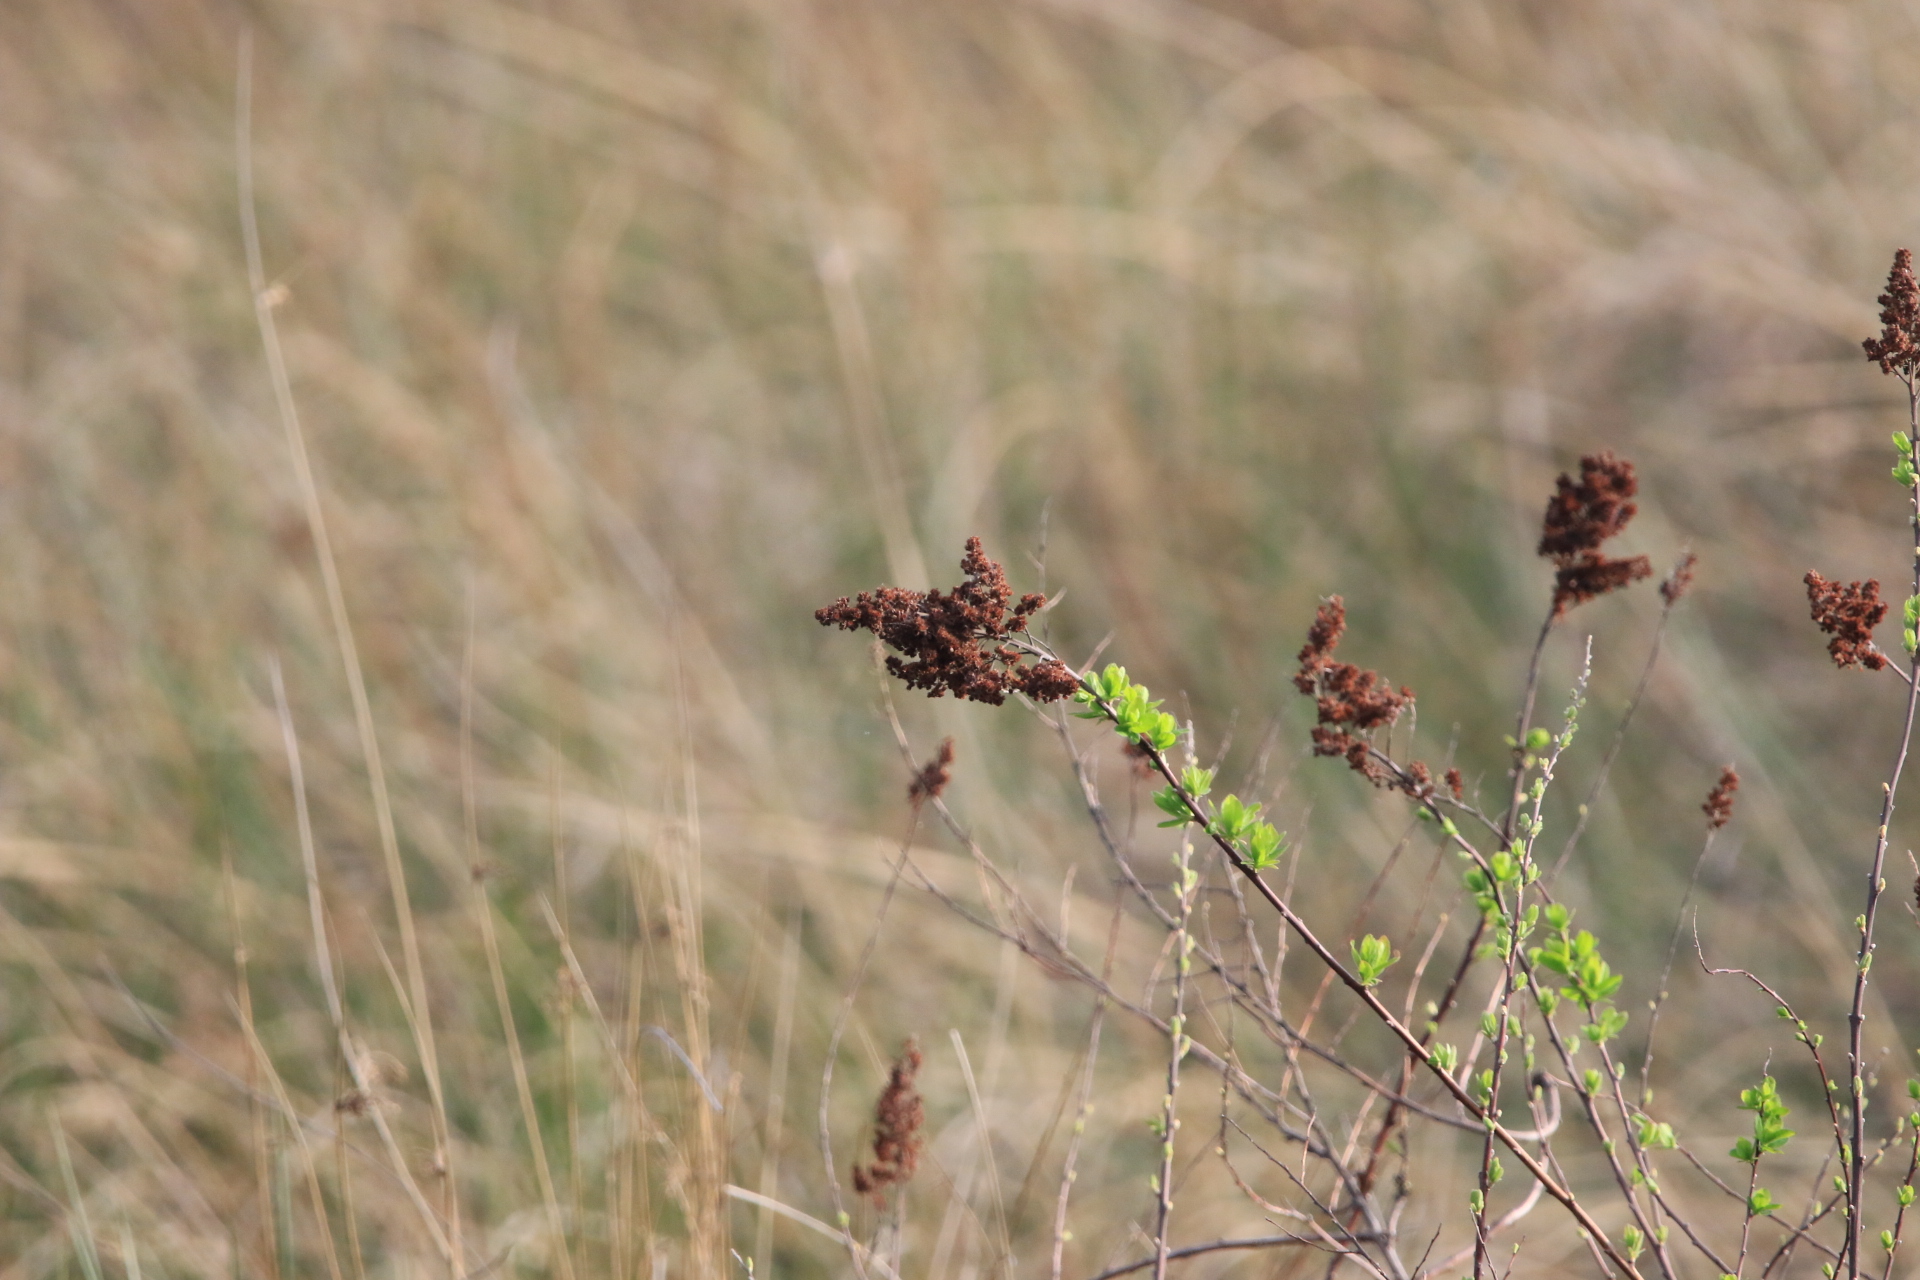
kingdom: Plantae
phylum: Tracheophyta
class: Magnoliopsida
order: Rosales
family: Rosaceae
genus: Spiraea
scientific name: Spiraea douglasii
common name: Steeplebush
